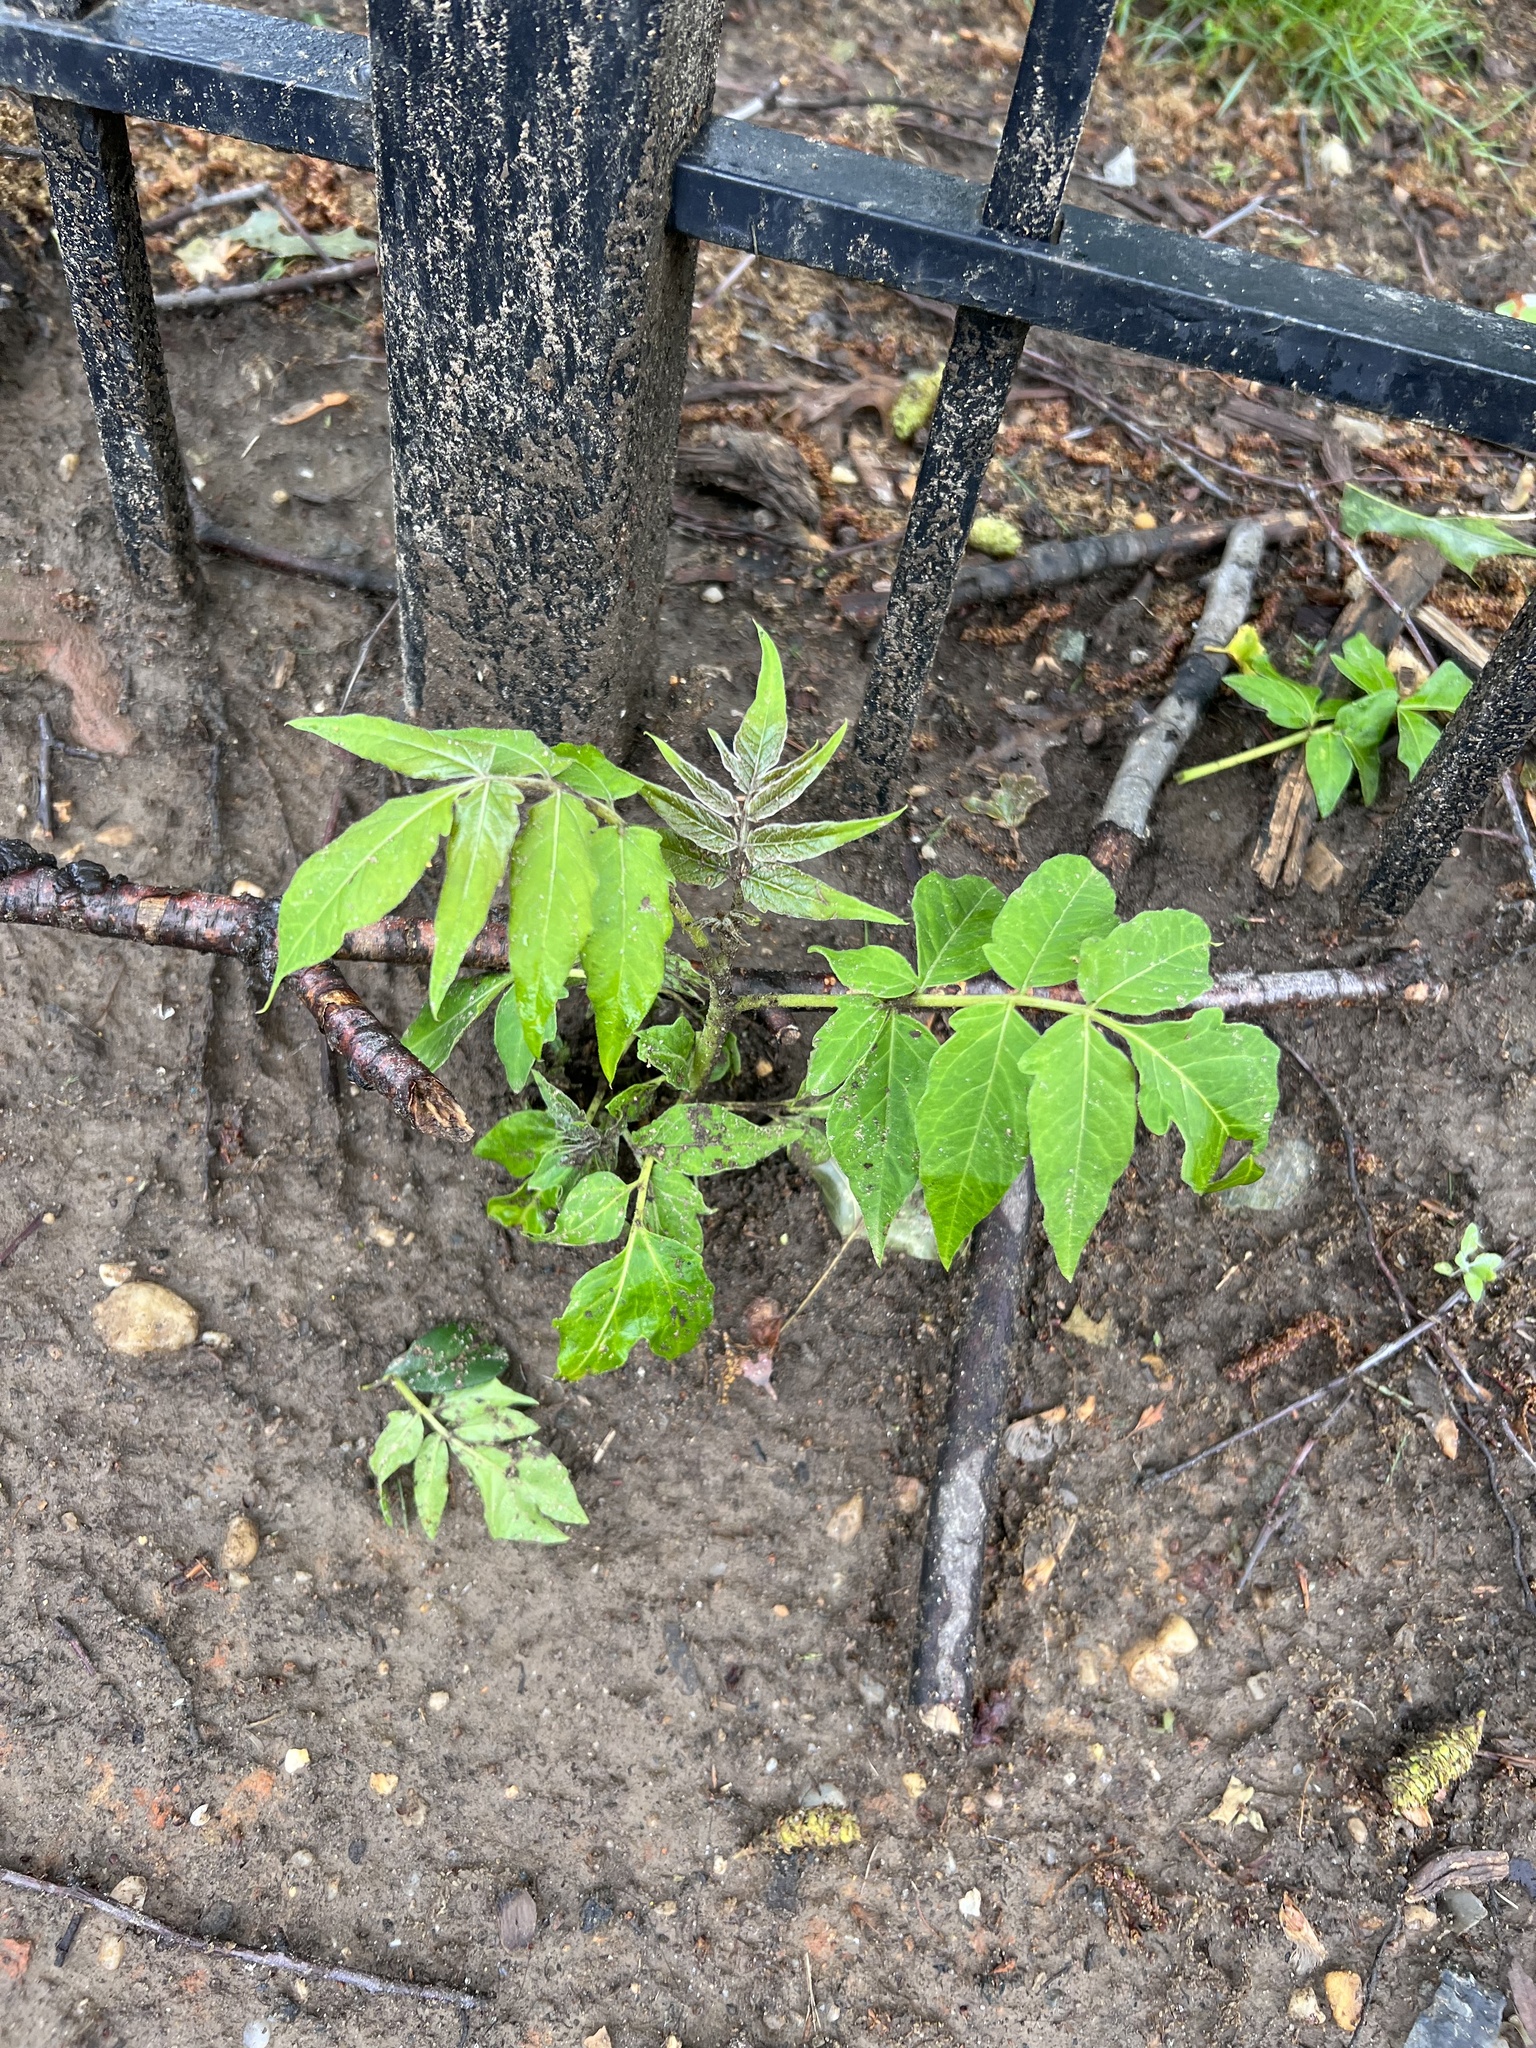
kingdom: Plantae
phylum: Tracheophyta
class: Magnoliopsida
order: Sapindales
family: Simaroubaceae
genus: Ailanthus
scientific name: Ailanthus altissima
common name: Tree-of-heaven
